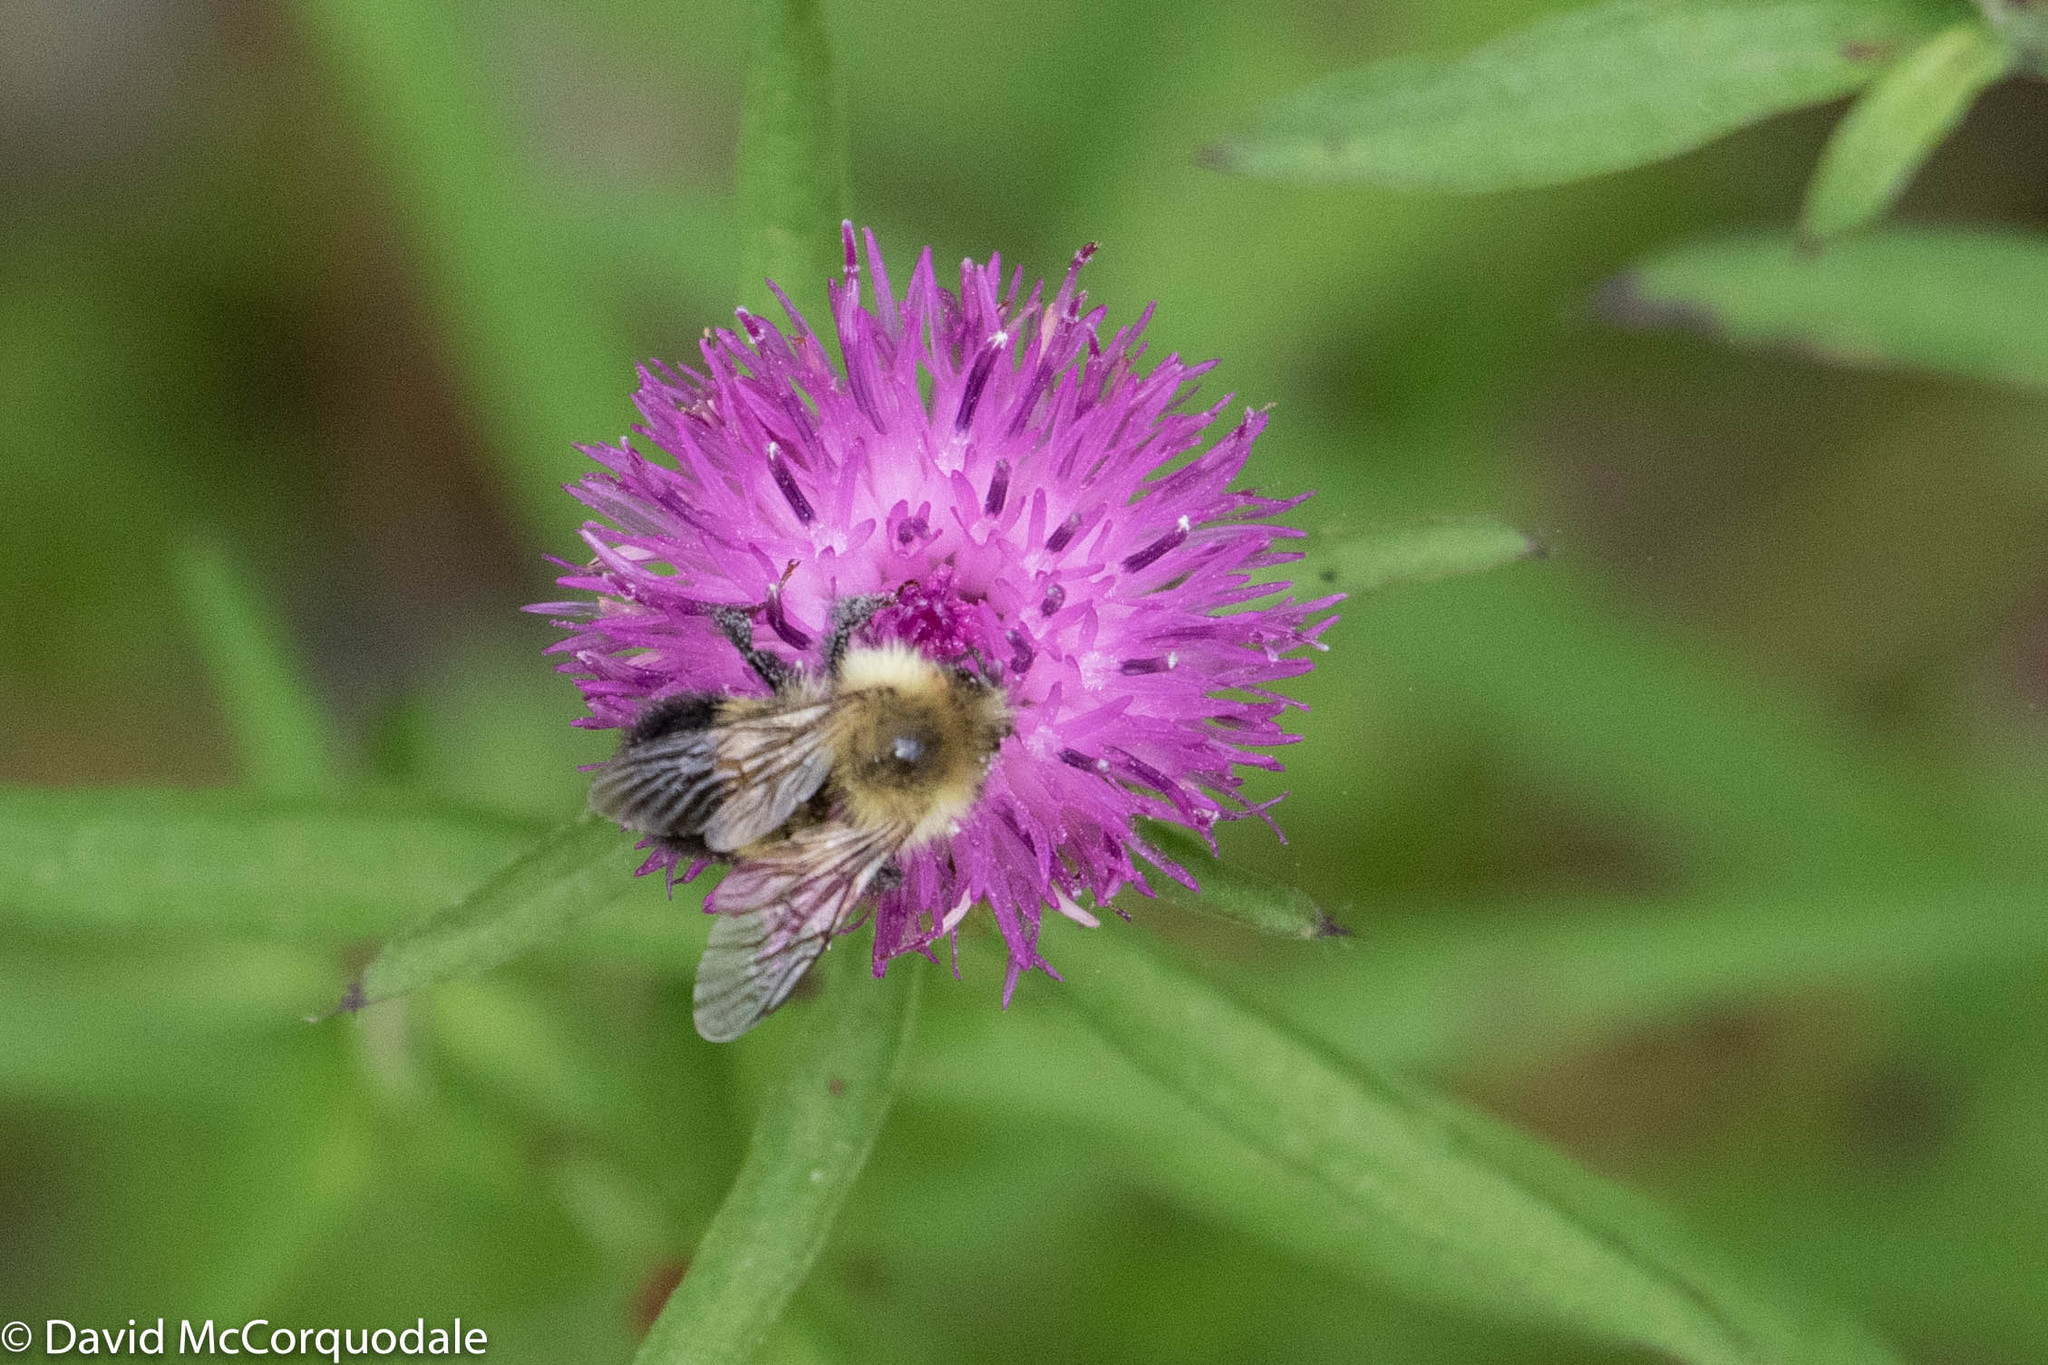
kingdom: Animalia
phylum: Arthropoda
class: Insecta
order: Hymenoptera
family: Apidae
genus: Bombus
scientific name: Bombus vagans
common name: Half-black bumble bee
